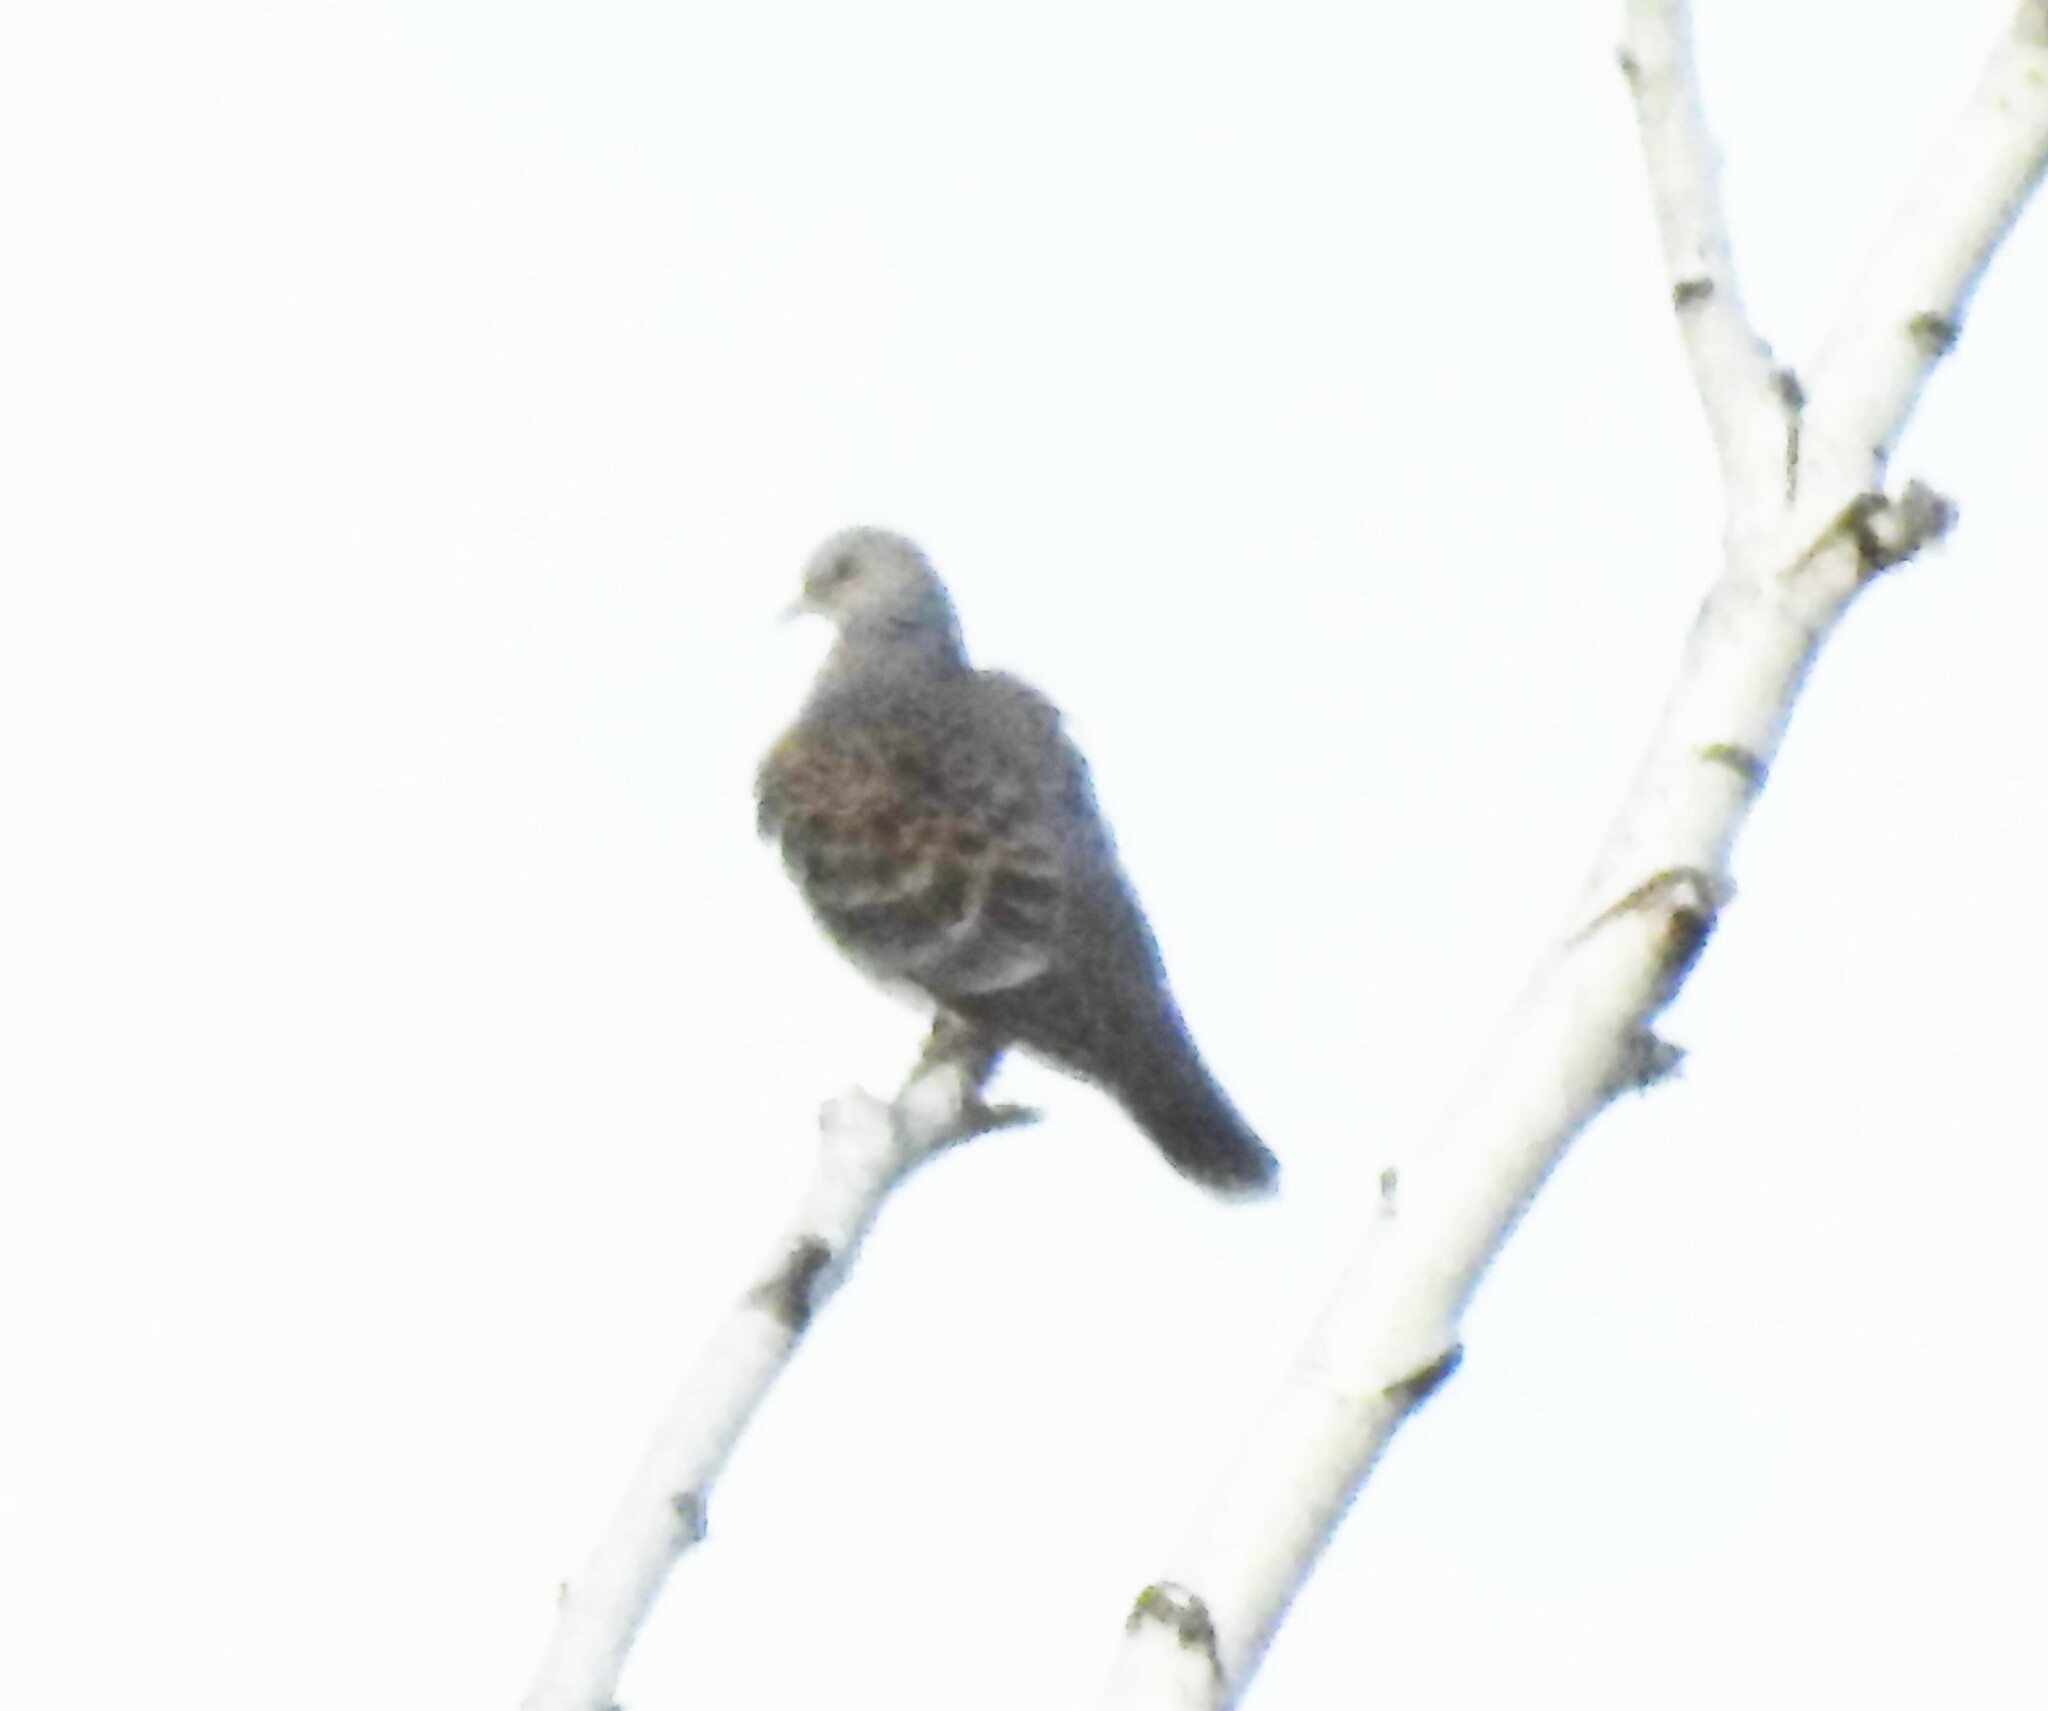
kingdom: Animalia
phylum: Chordata
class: Aves
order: Columbiformes
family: Columbidae
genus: Streptopelia
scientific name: Streptopelia orientalis
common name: Oriental turtle dove
